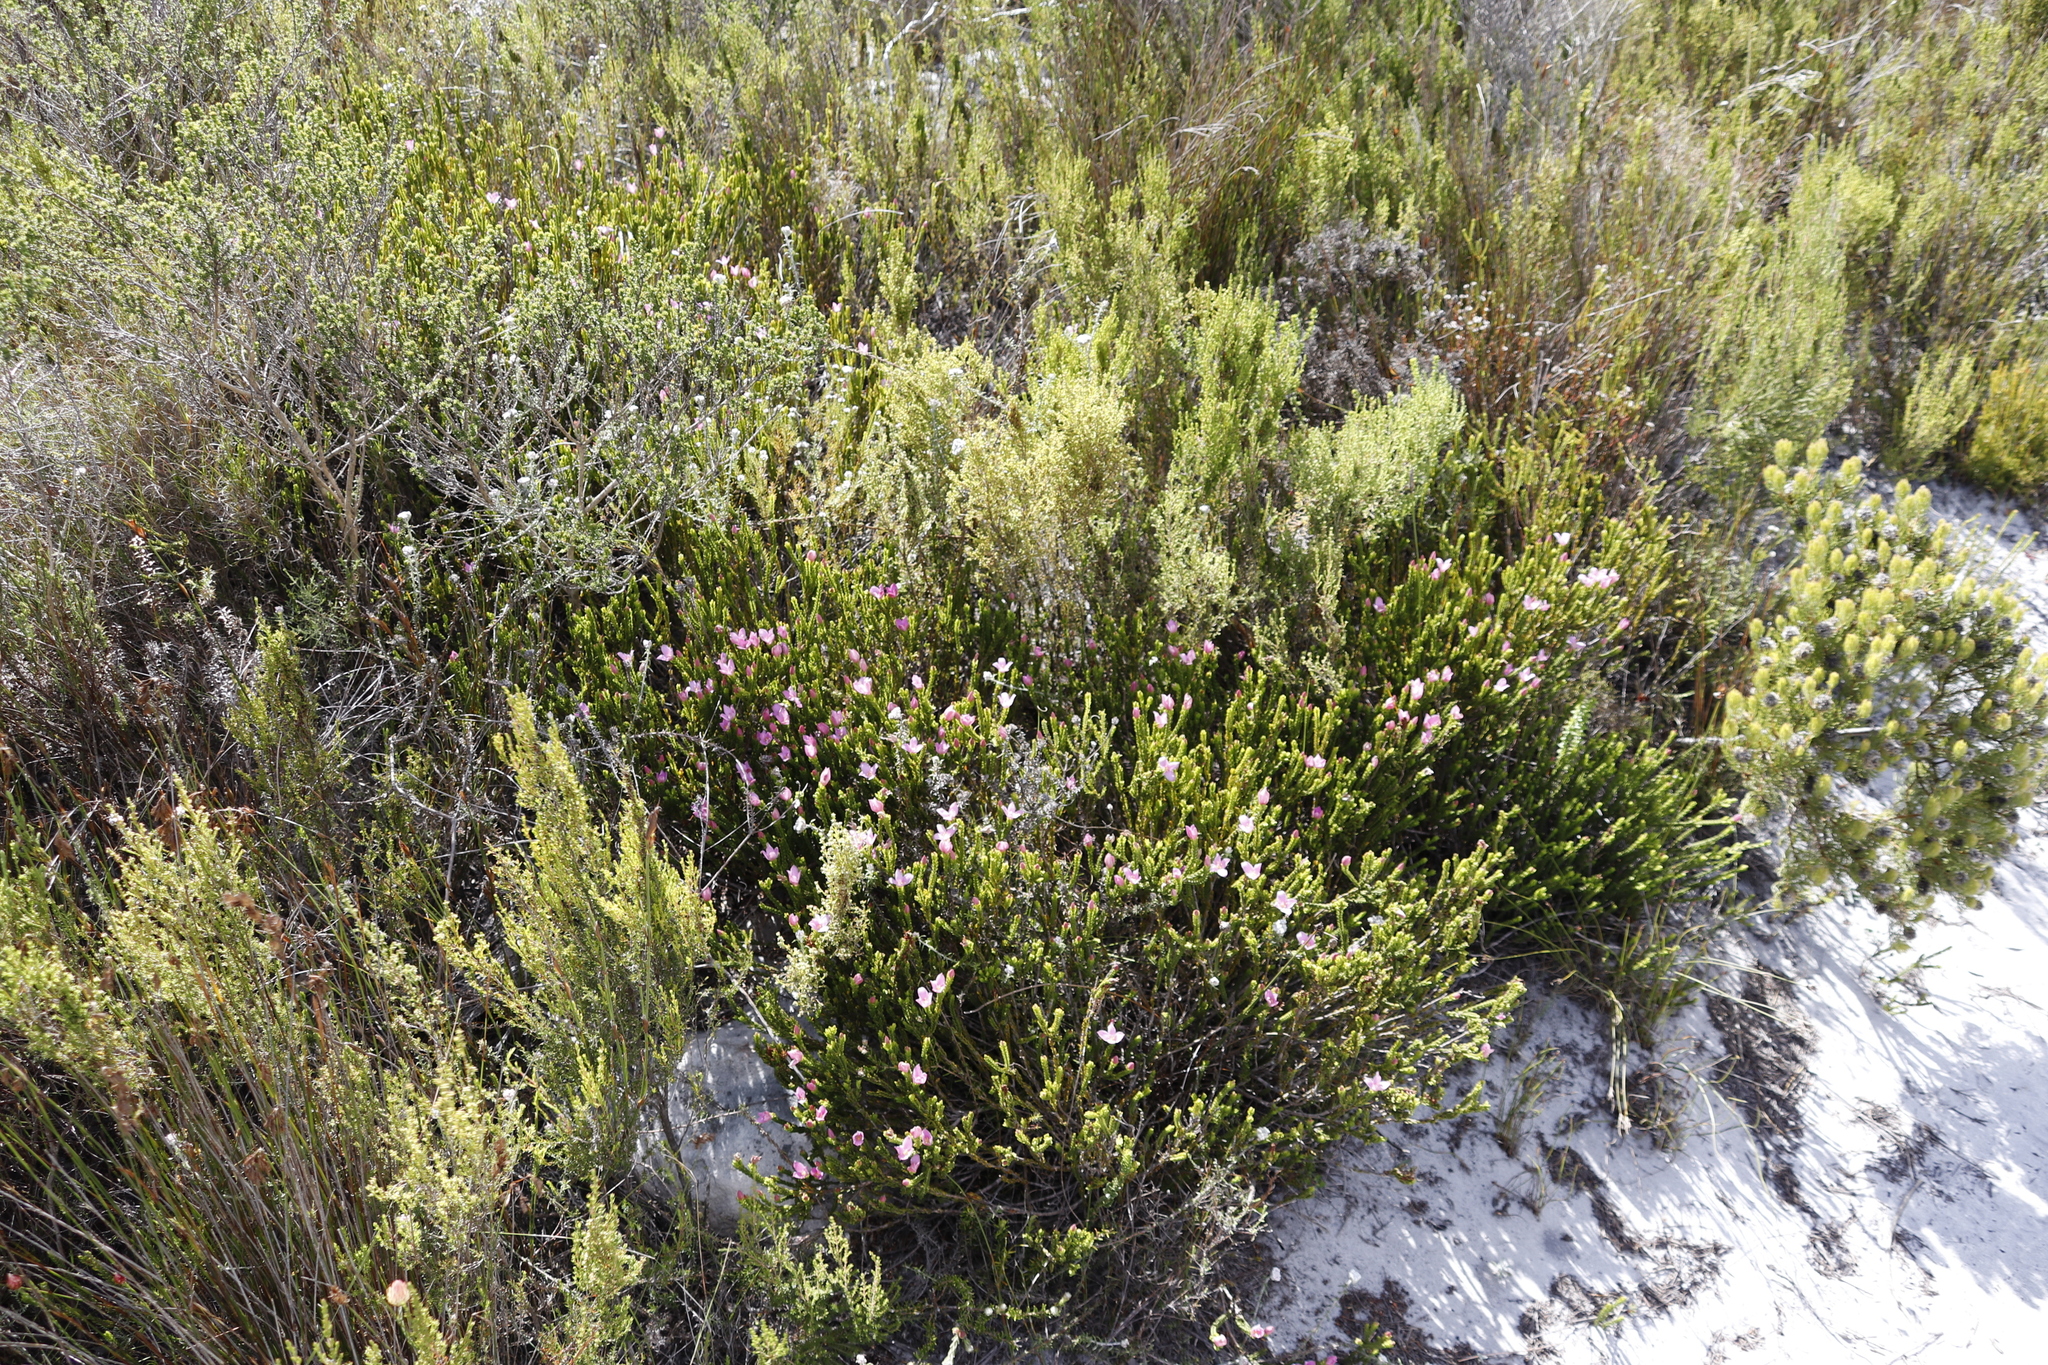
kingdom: Plantae
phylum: Tracheophyta
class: Magnoliopsida
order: Malvales
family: Thymelaeaceae
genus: Lachnaea
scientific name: Lachnaea grandiflora
